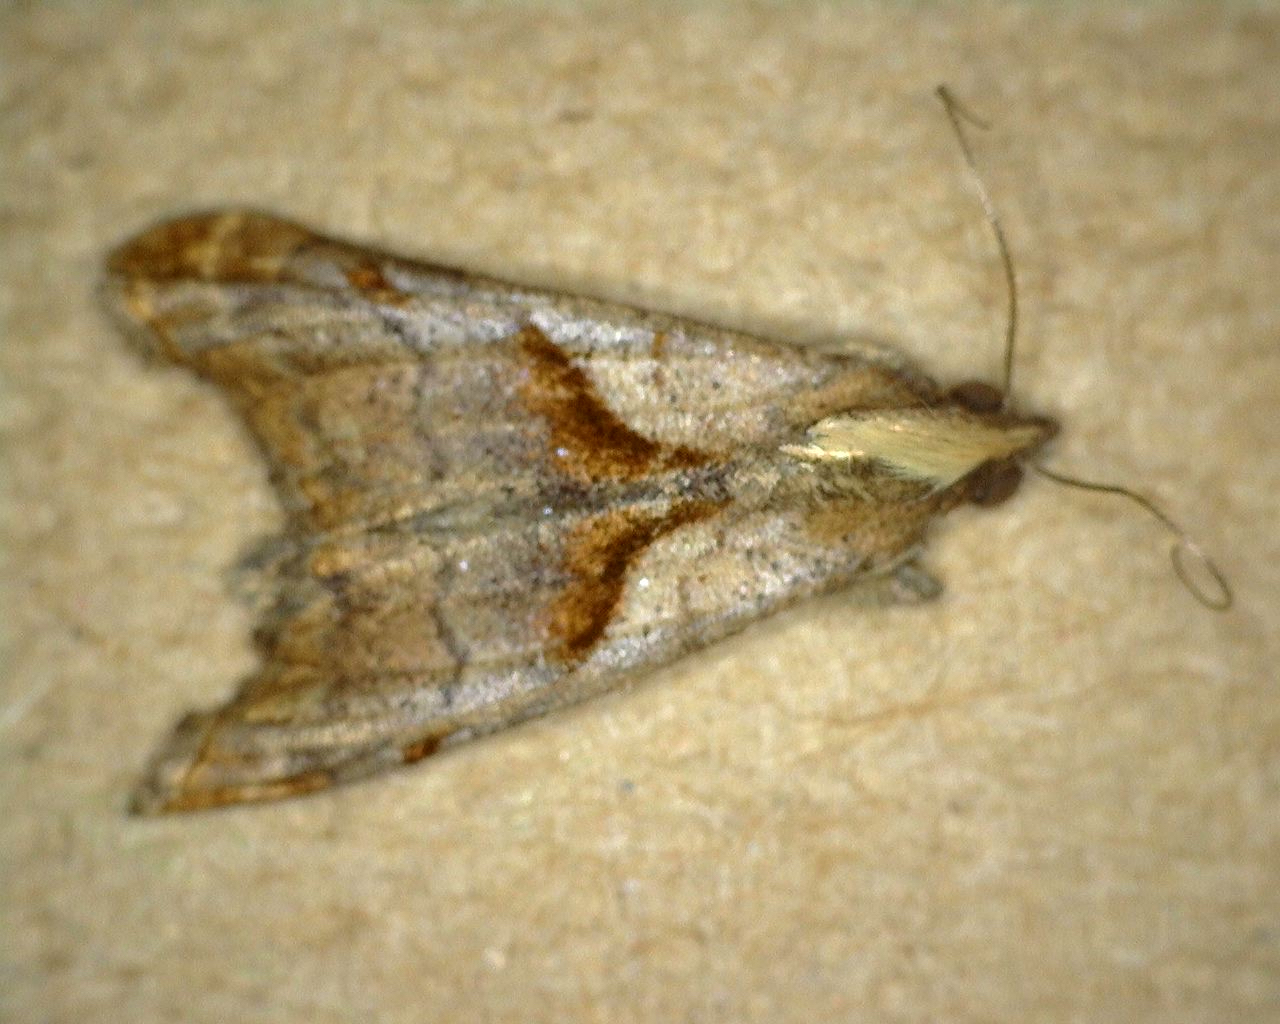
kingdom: Animalia
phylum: Arthropoda
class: Insecta
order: Lepidoptera
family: Erebidae
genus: Palthis
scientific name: Palthis angulalis
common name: Dark-spotted palthis moth
